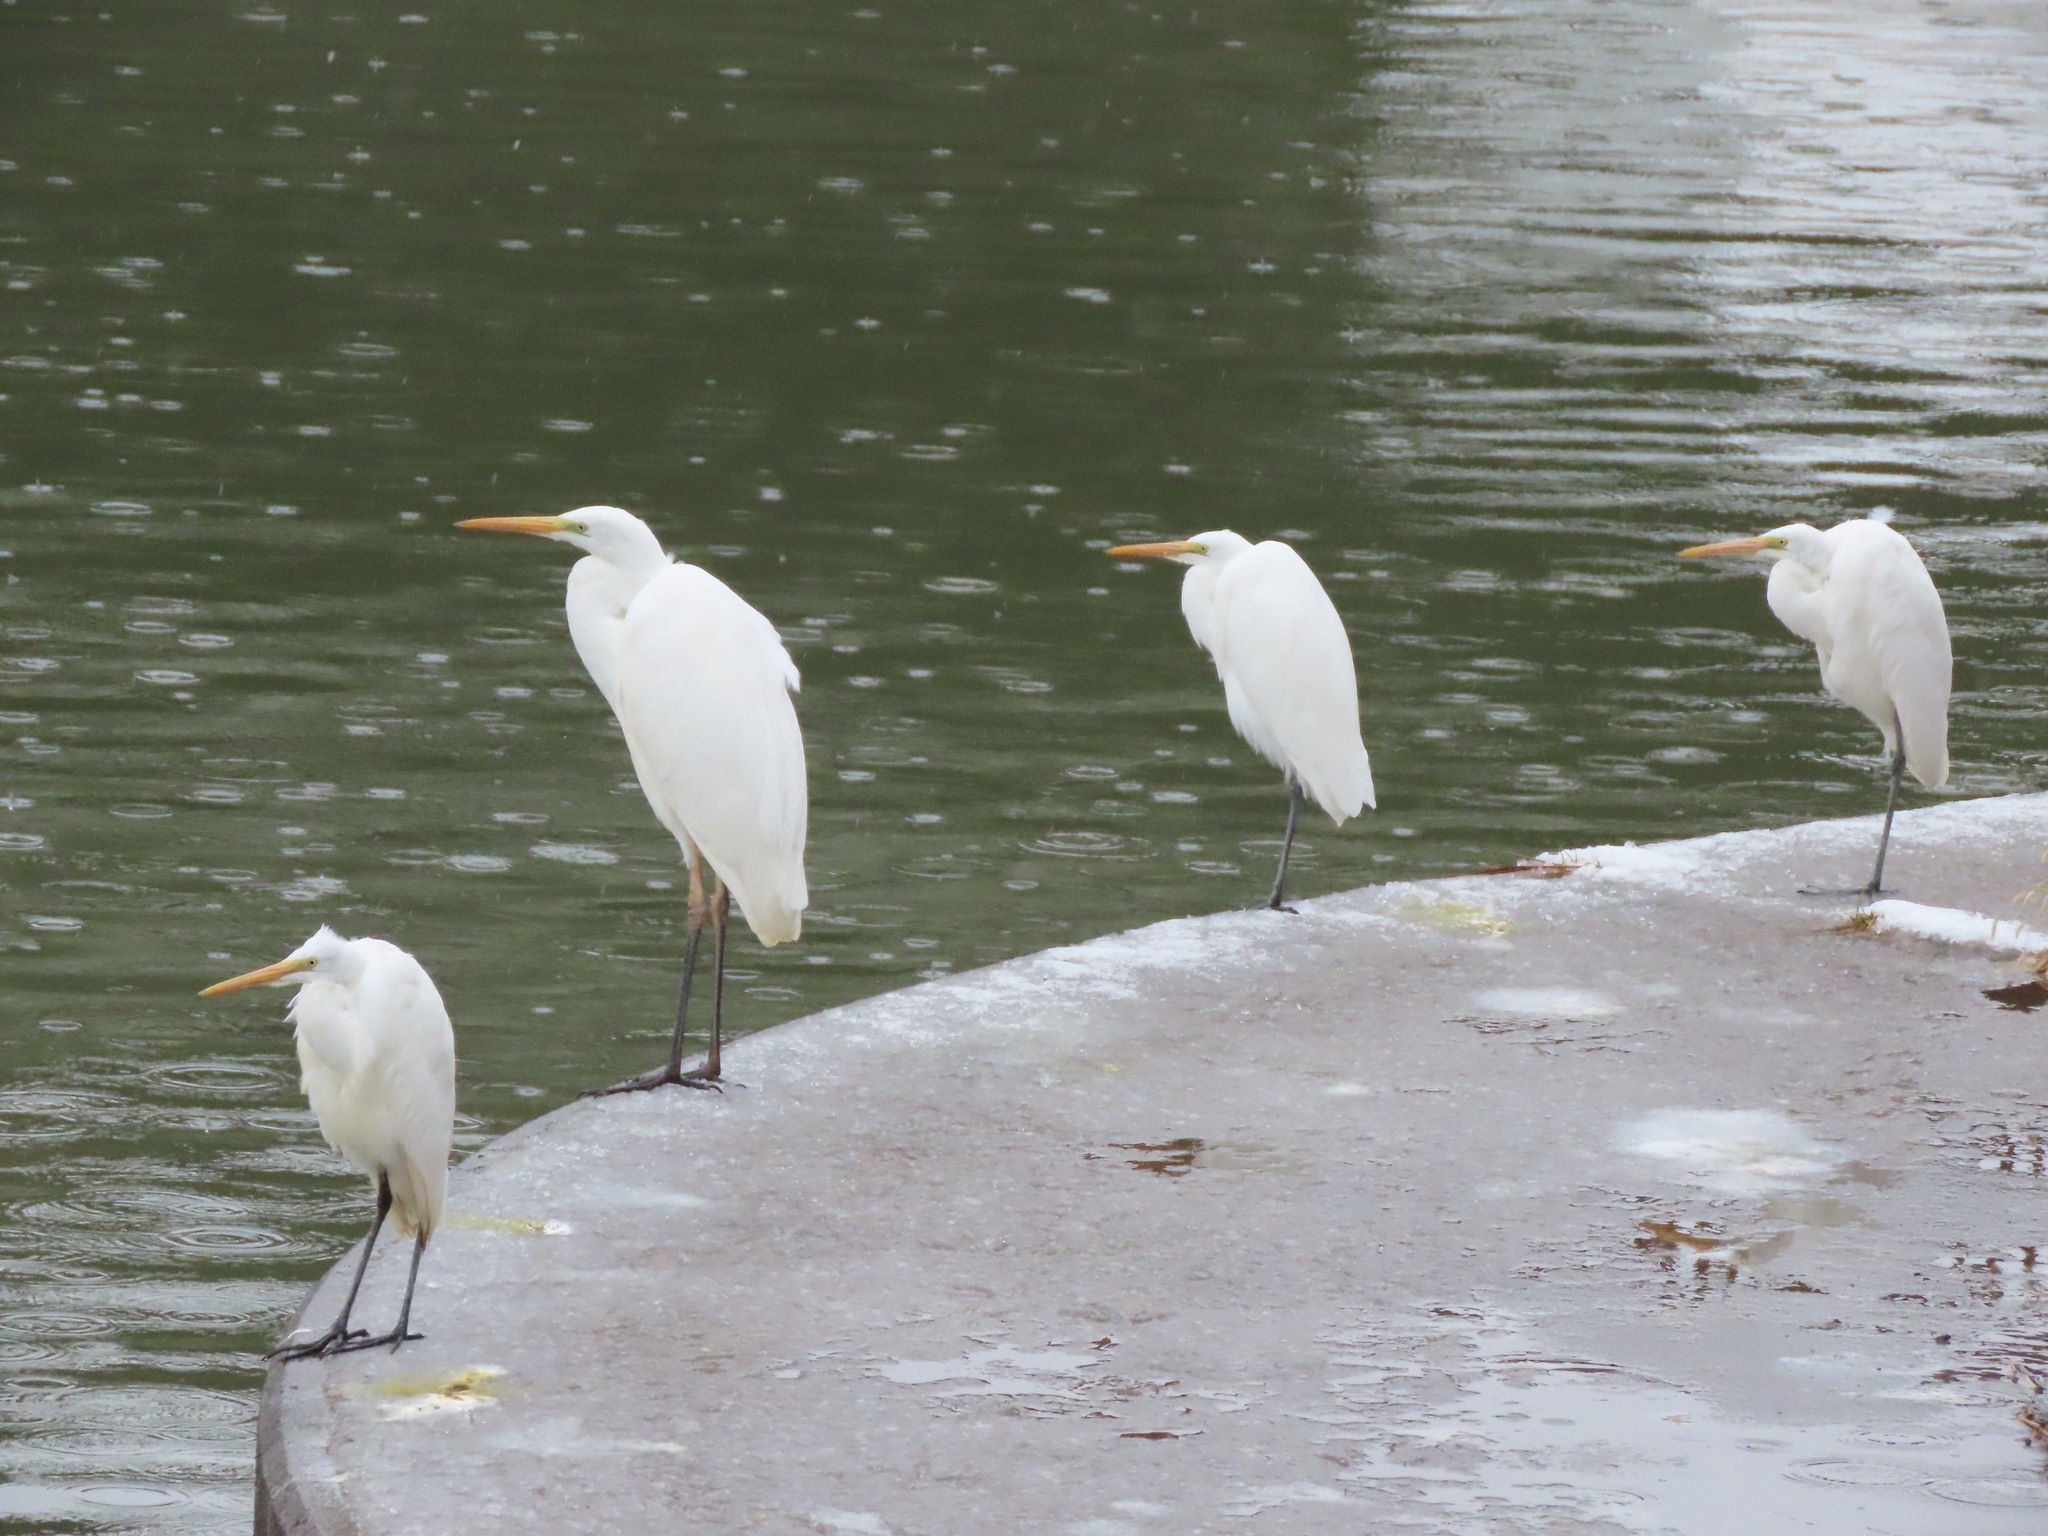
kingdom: Animalia
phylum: Chordata
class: Aves
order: Pelecaniformes
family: Ardeidae
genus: Ardea
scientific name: Ardea alba
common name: Great egret
